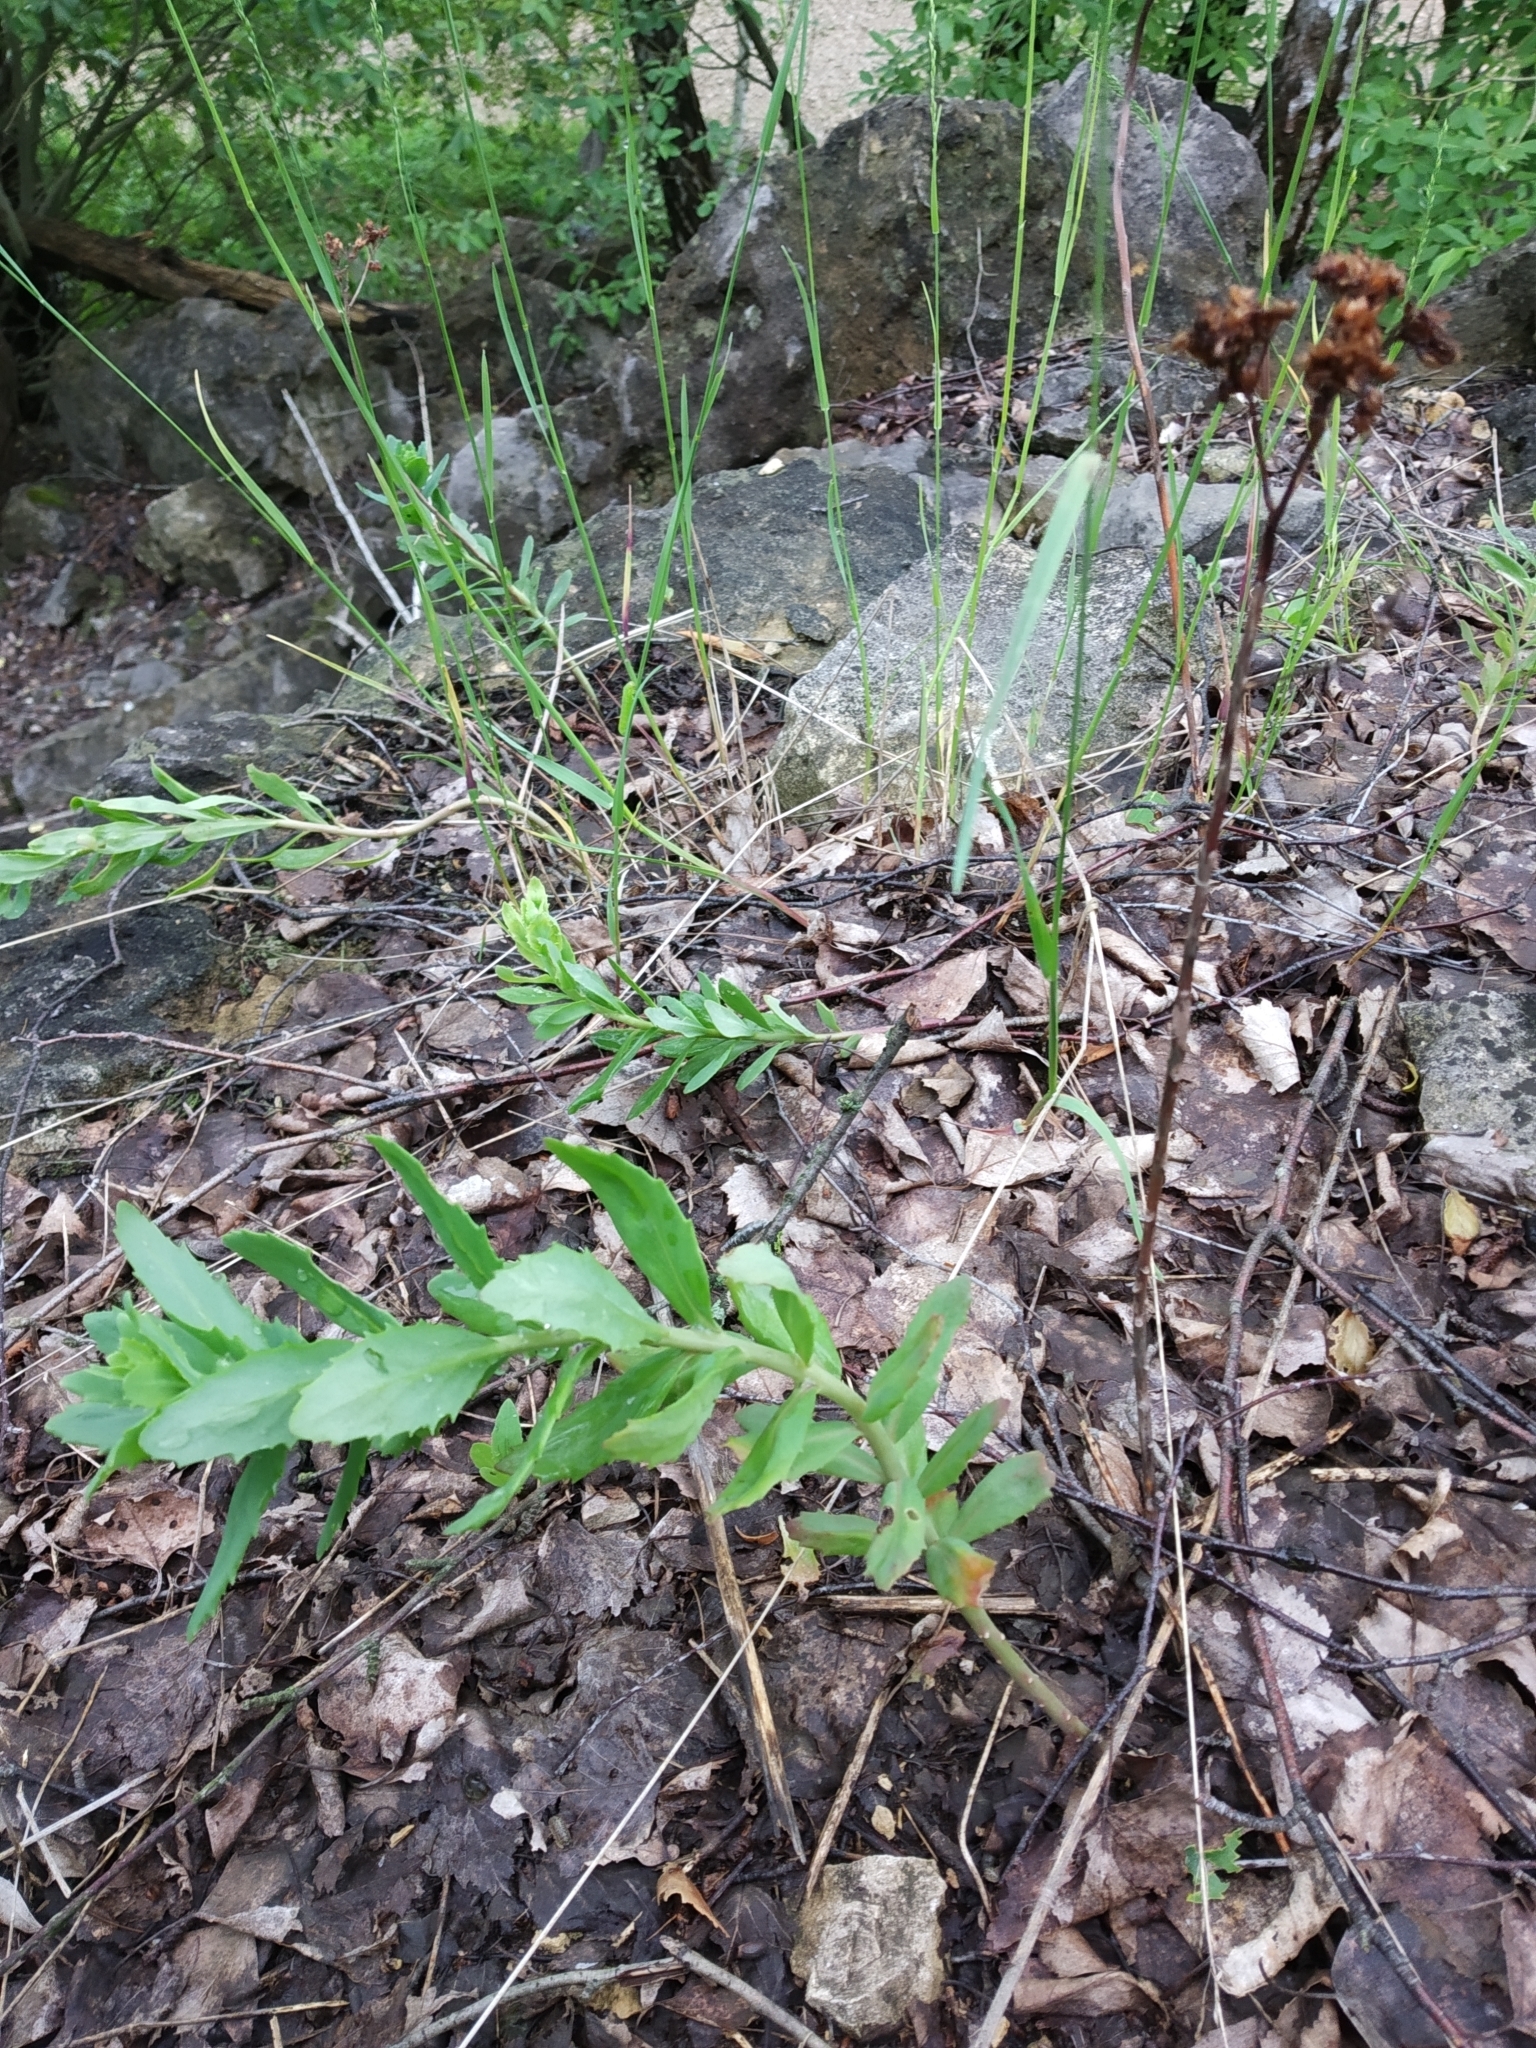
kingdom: Plantae
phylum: Tracheophyta
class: Magnoliopsida
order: Saxifragales
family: Crassulaceae
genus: Hylotelephium
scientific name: Hylotelephium telephium
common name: Live-forever
